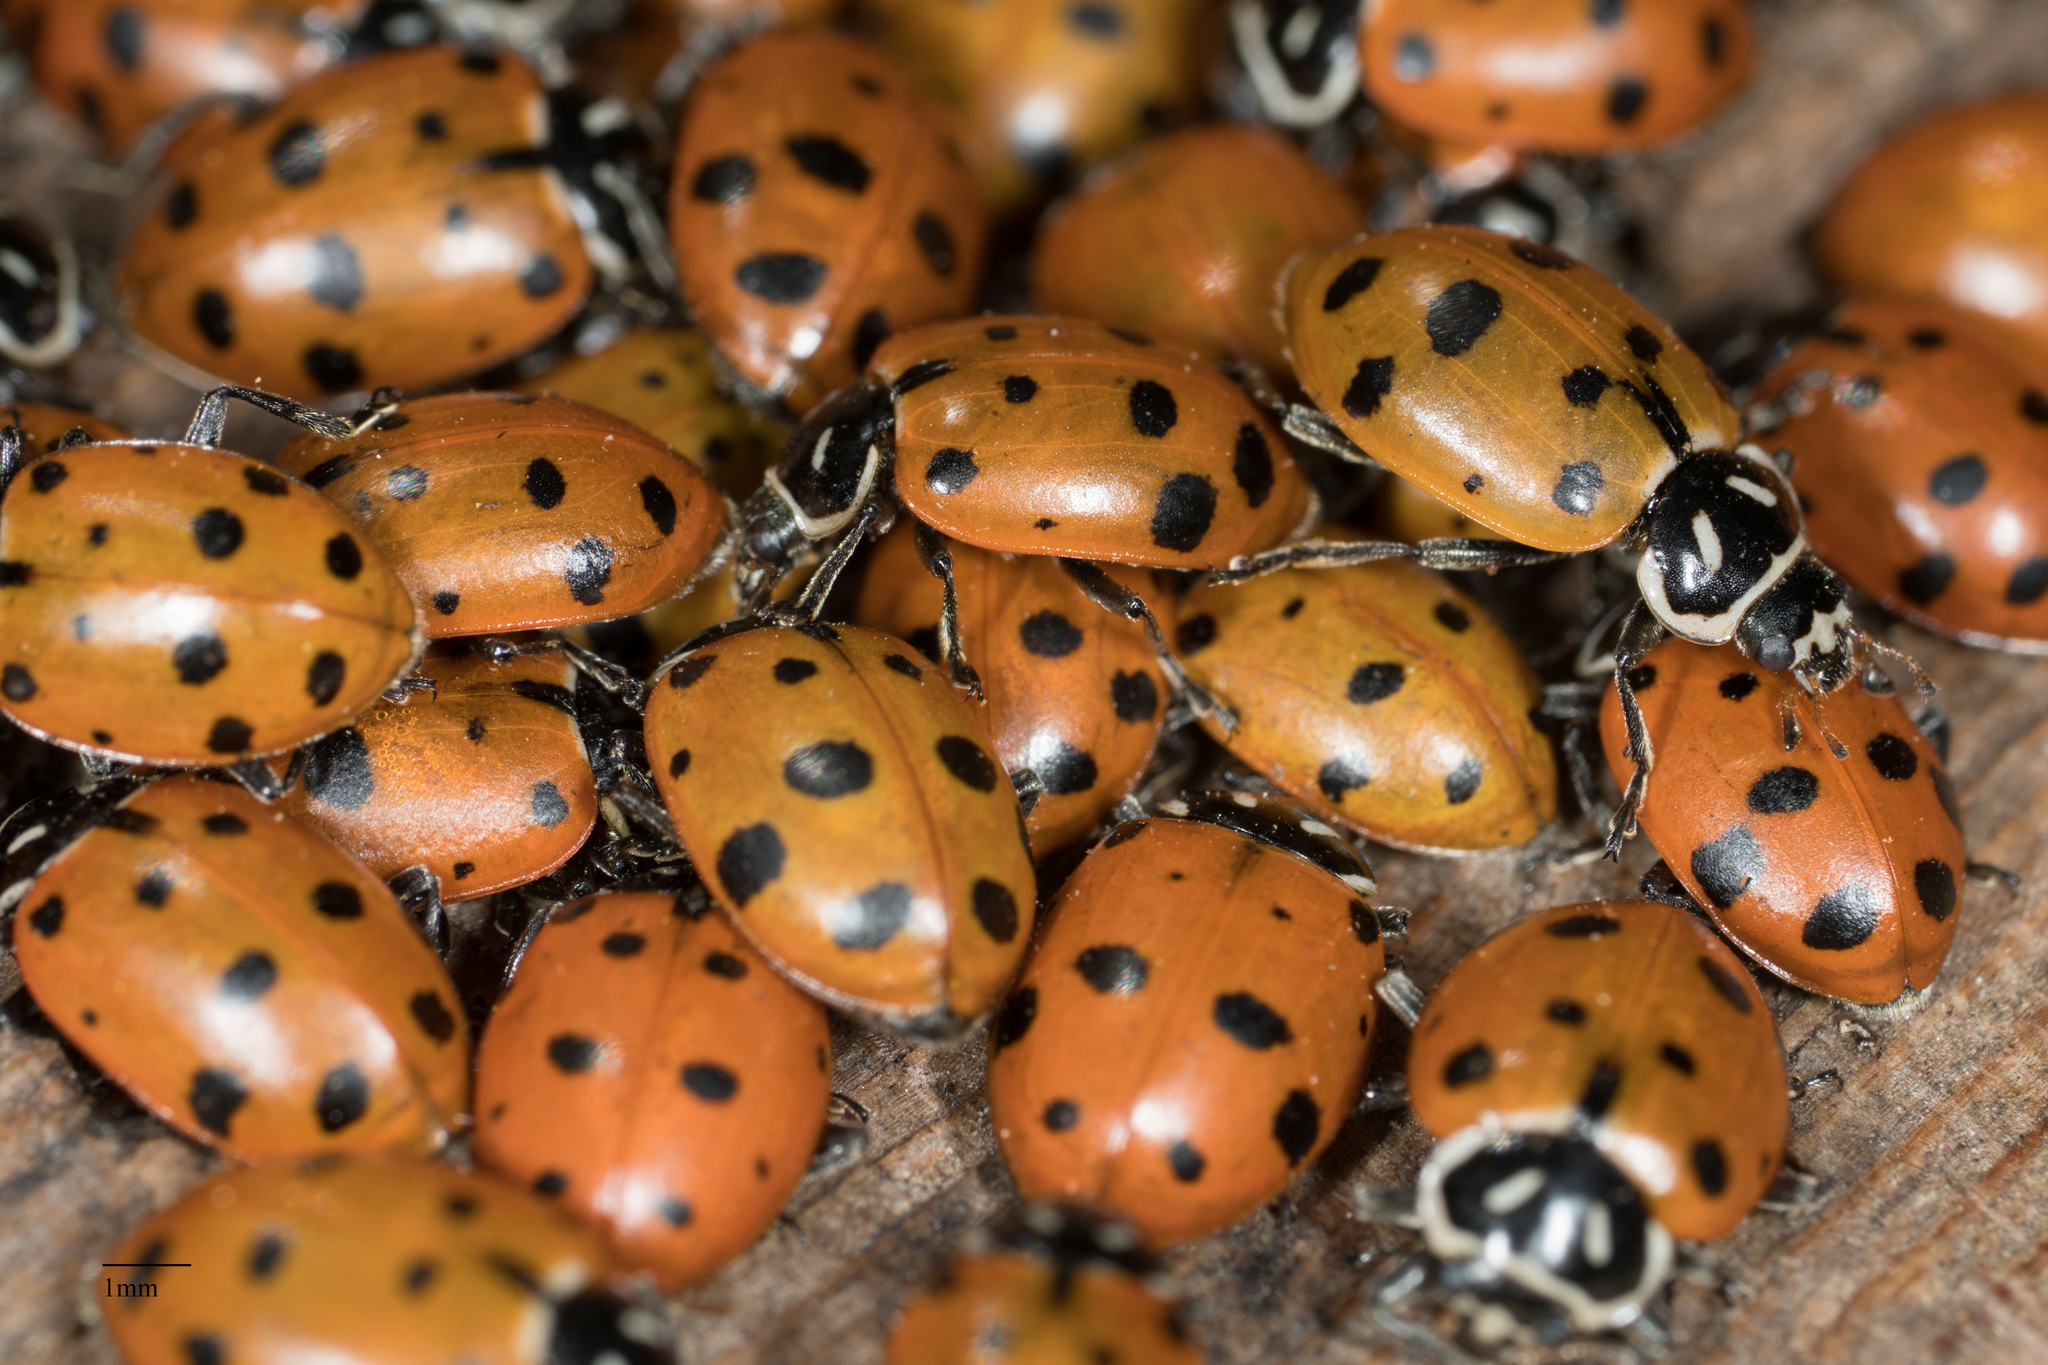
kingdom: Animalia
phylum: Arthropoda
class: Insecta
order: Coleoptera
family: Coccinellidae
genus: Hippodamia
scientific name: Hippodamia convergens
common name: Convergent lady beetle
